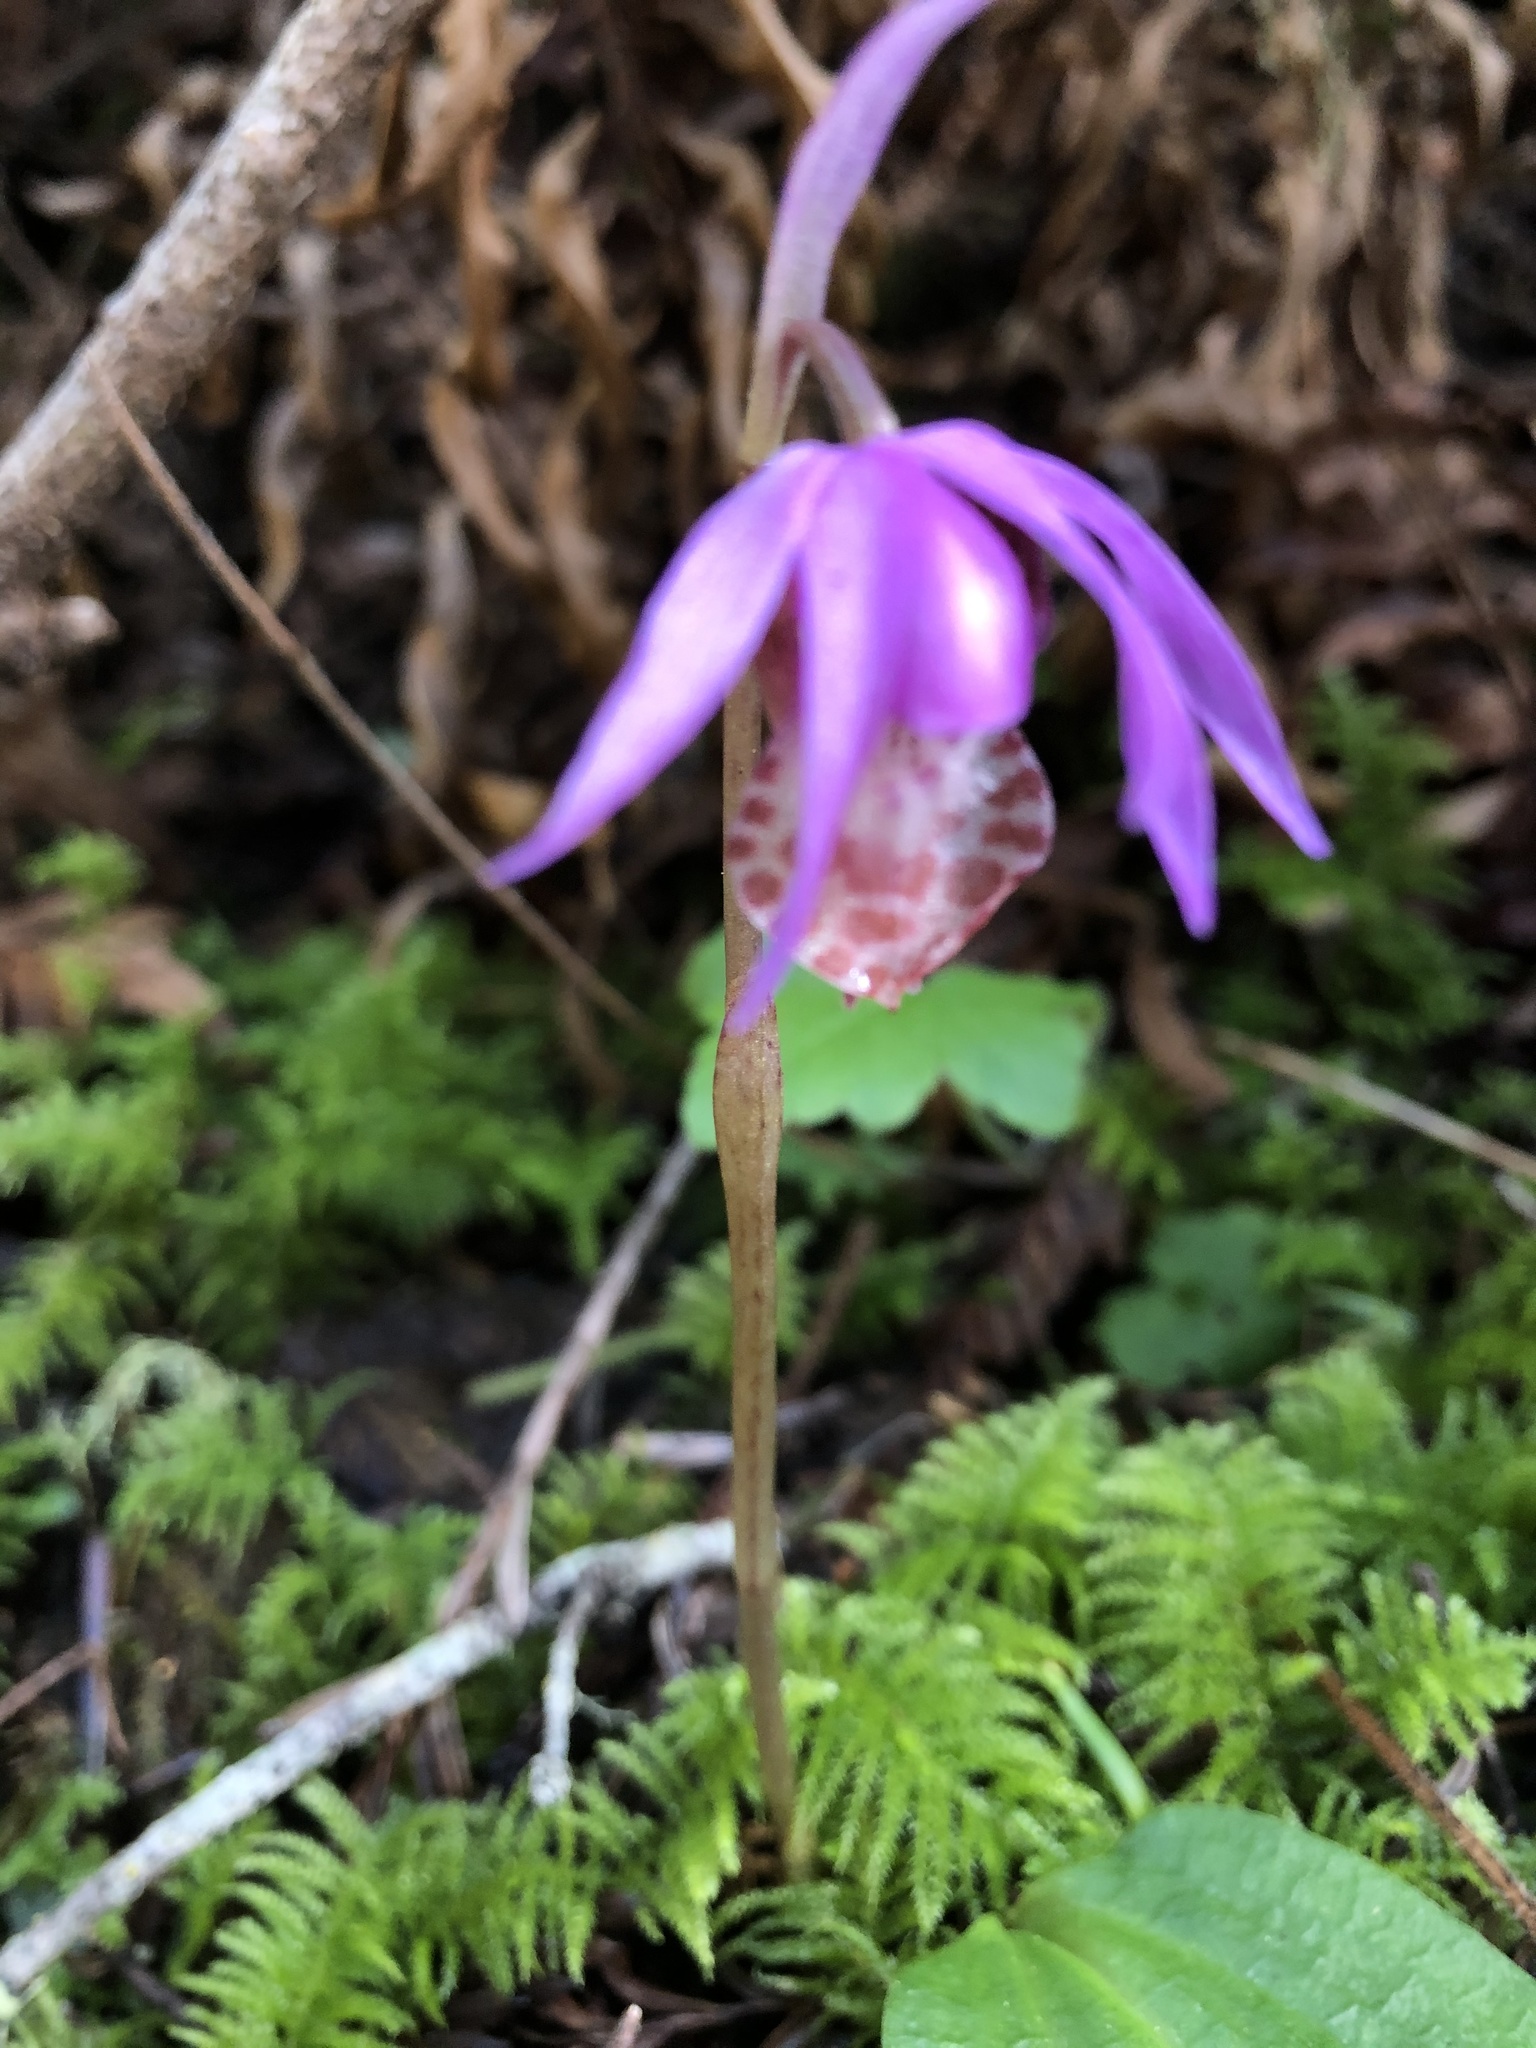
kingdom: Plantae
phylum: Tracheophyta
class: Liliopsida
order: Asparagales
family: Orchidaceae
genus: Calypso
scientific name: Calypso bulbosa
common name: Calypso
